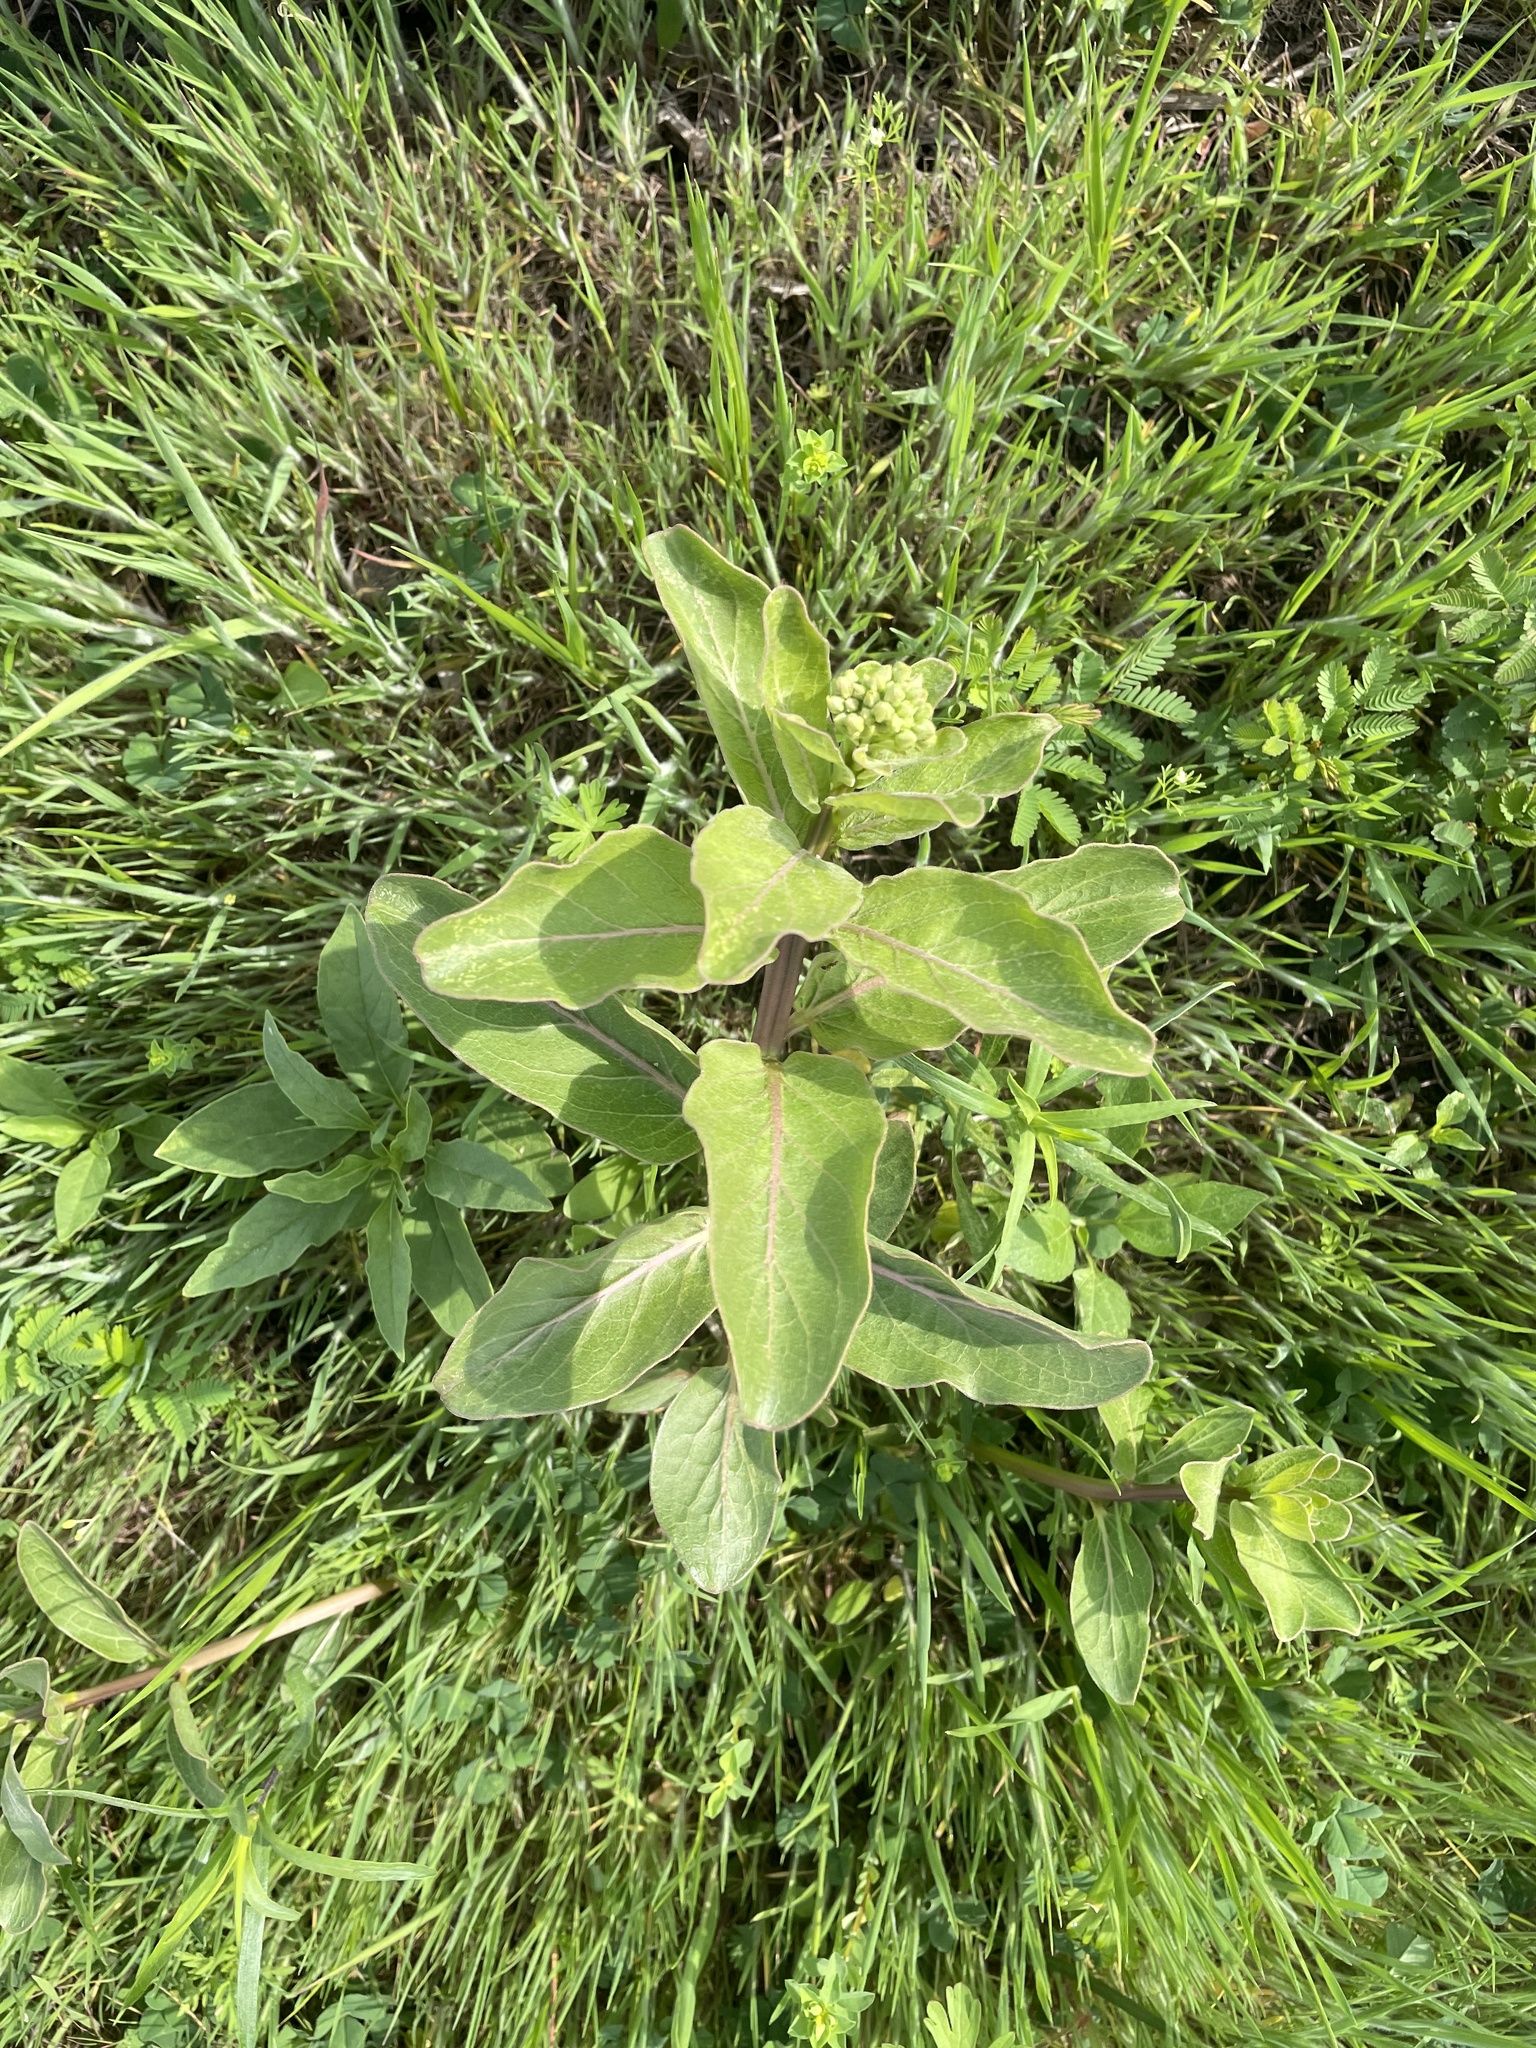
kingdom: Plantae
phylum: Tracheophyta
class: Magnoliopsida
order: Gentianales
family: Apocynaceae
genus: Asclepias
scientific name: Asclepias viridis
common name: Antelope-horns
